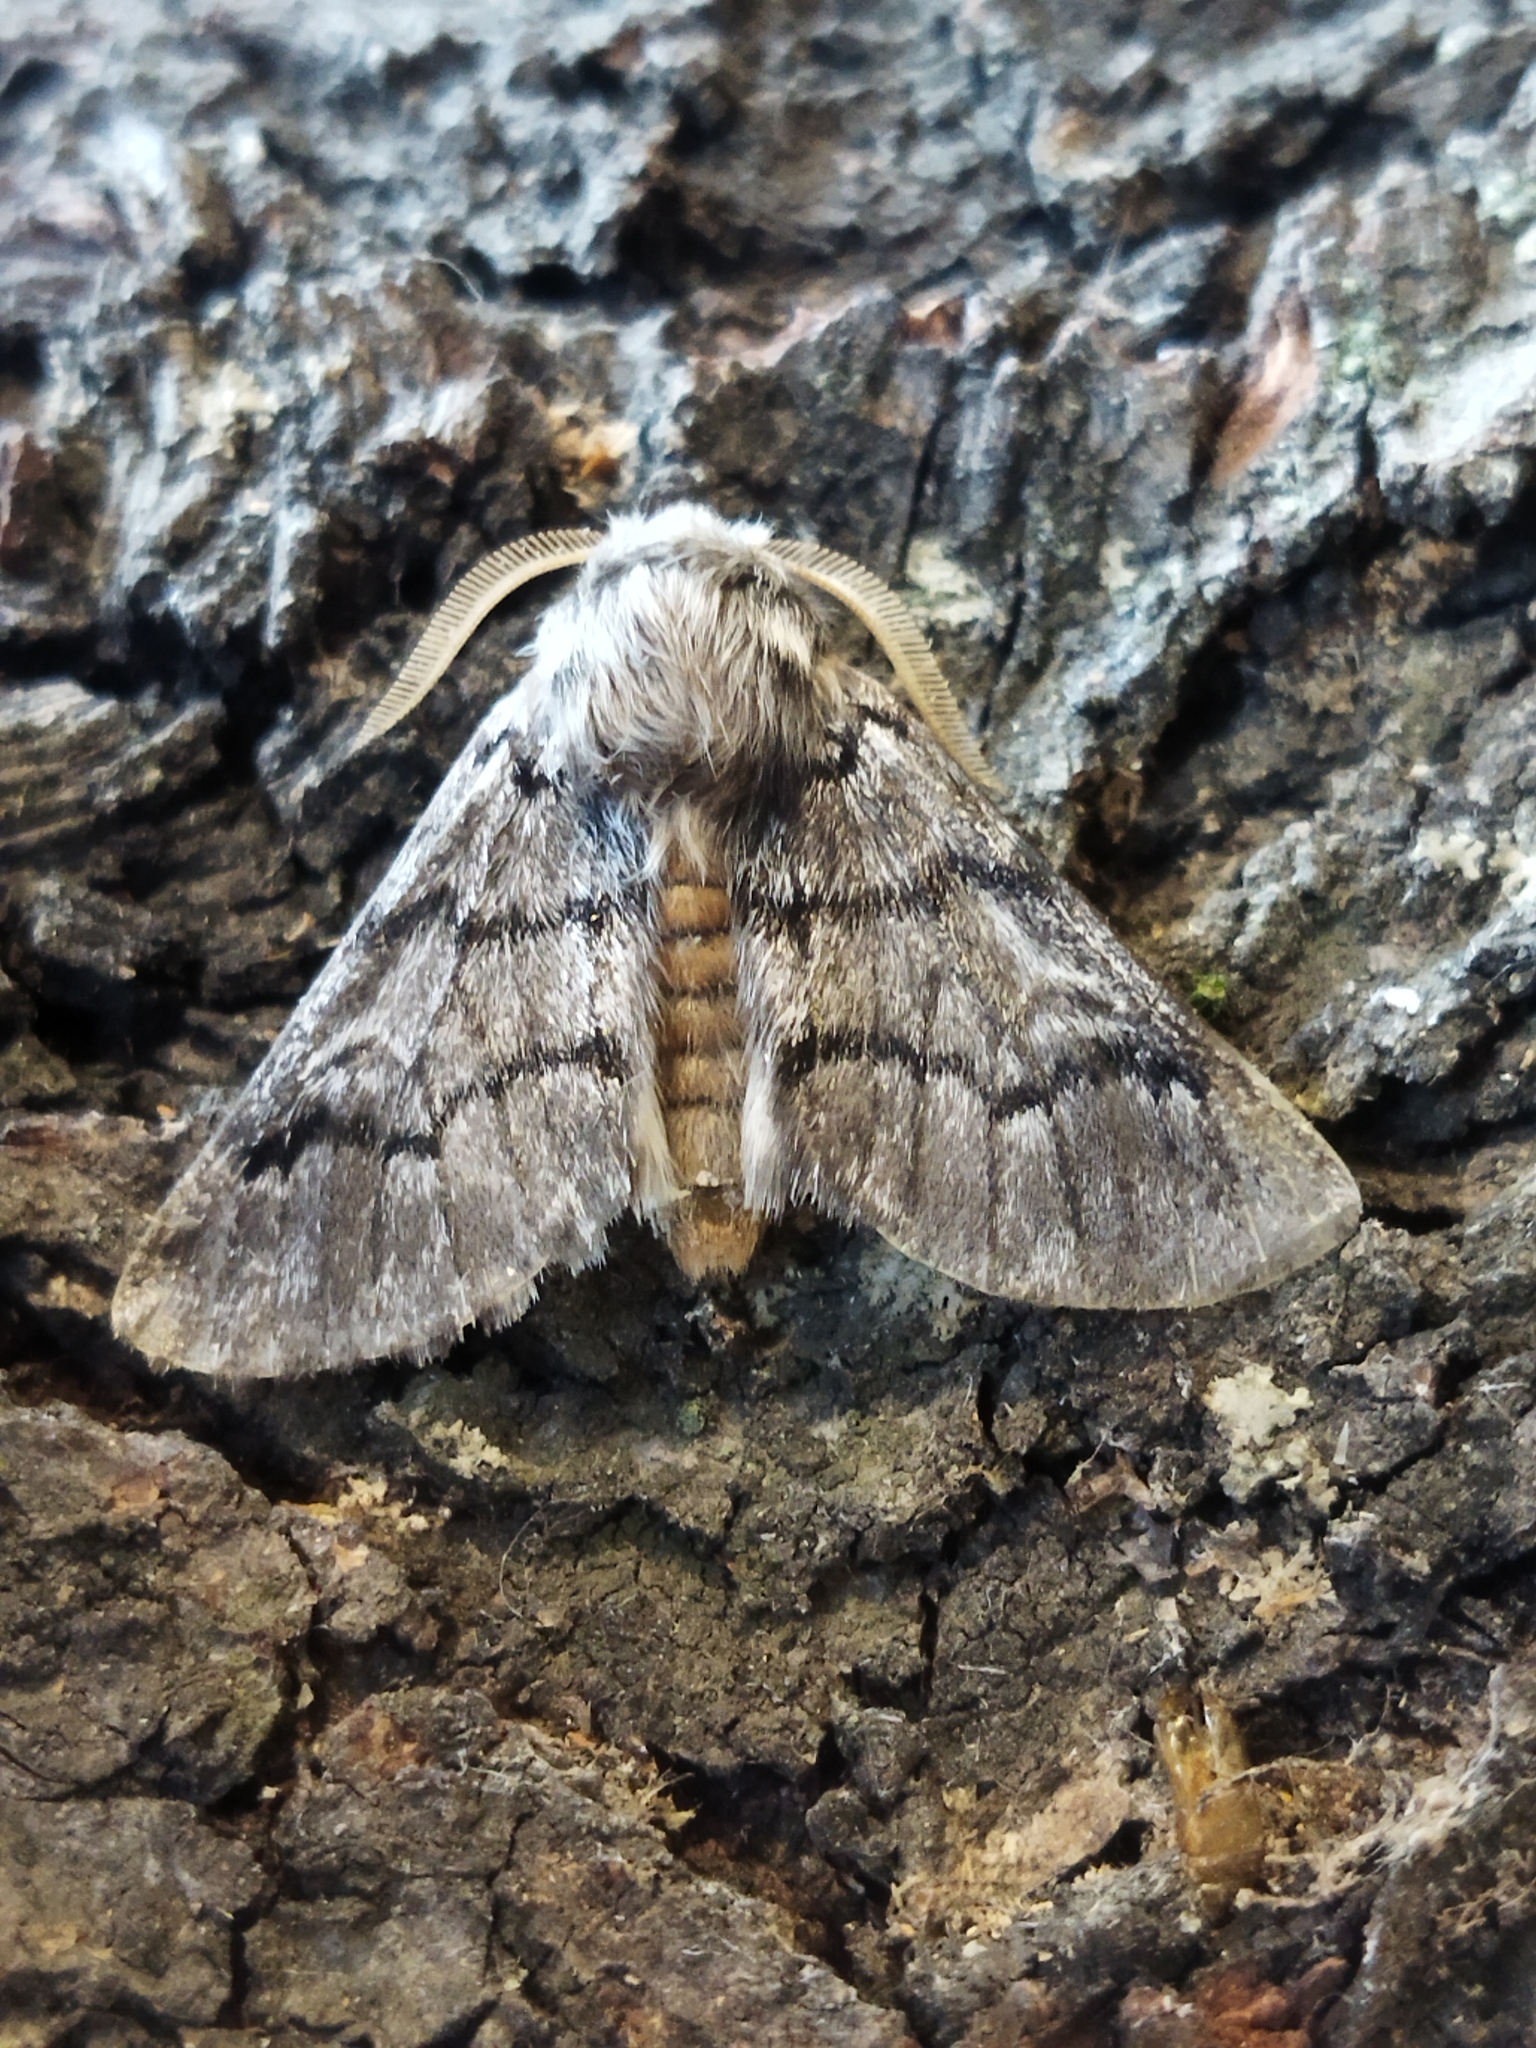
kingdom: Animalia
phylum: Arthropoda
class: Insecta
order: Lepidoptera
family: Notodontidae
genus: Thaumetopoea
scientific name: Thaumetopoea pityocampa
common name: Pine processionary
